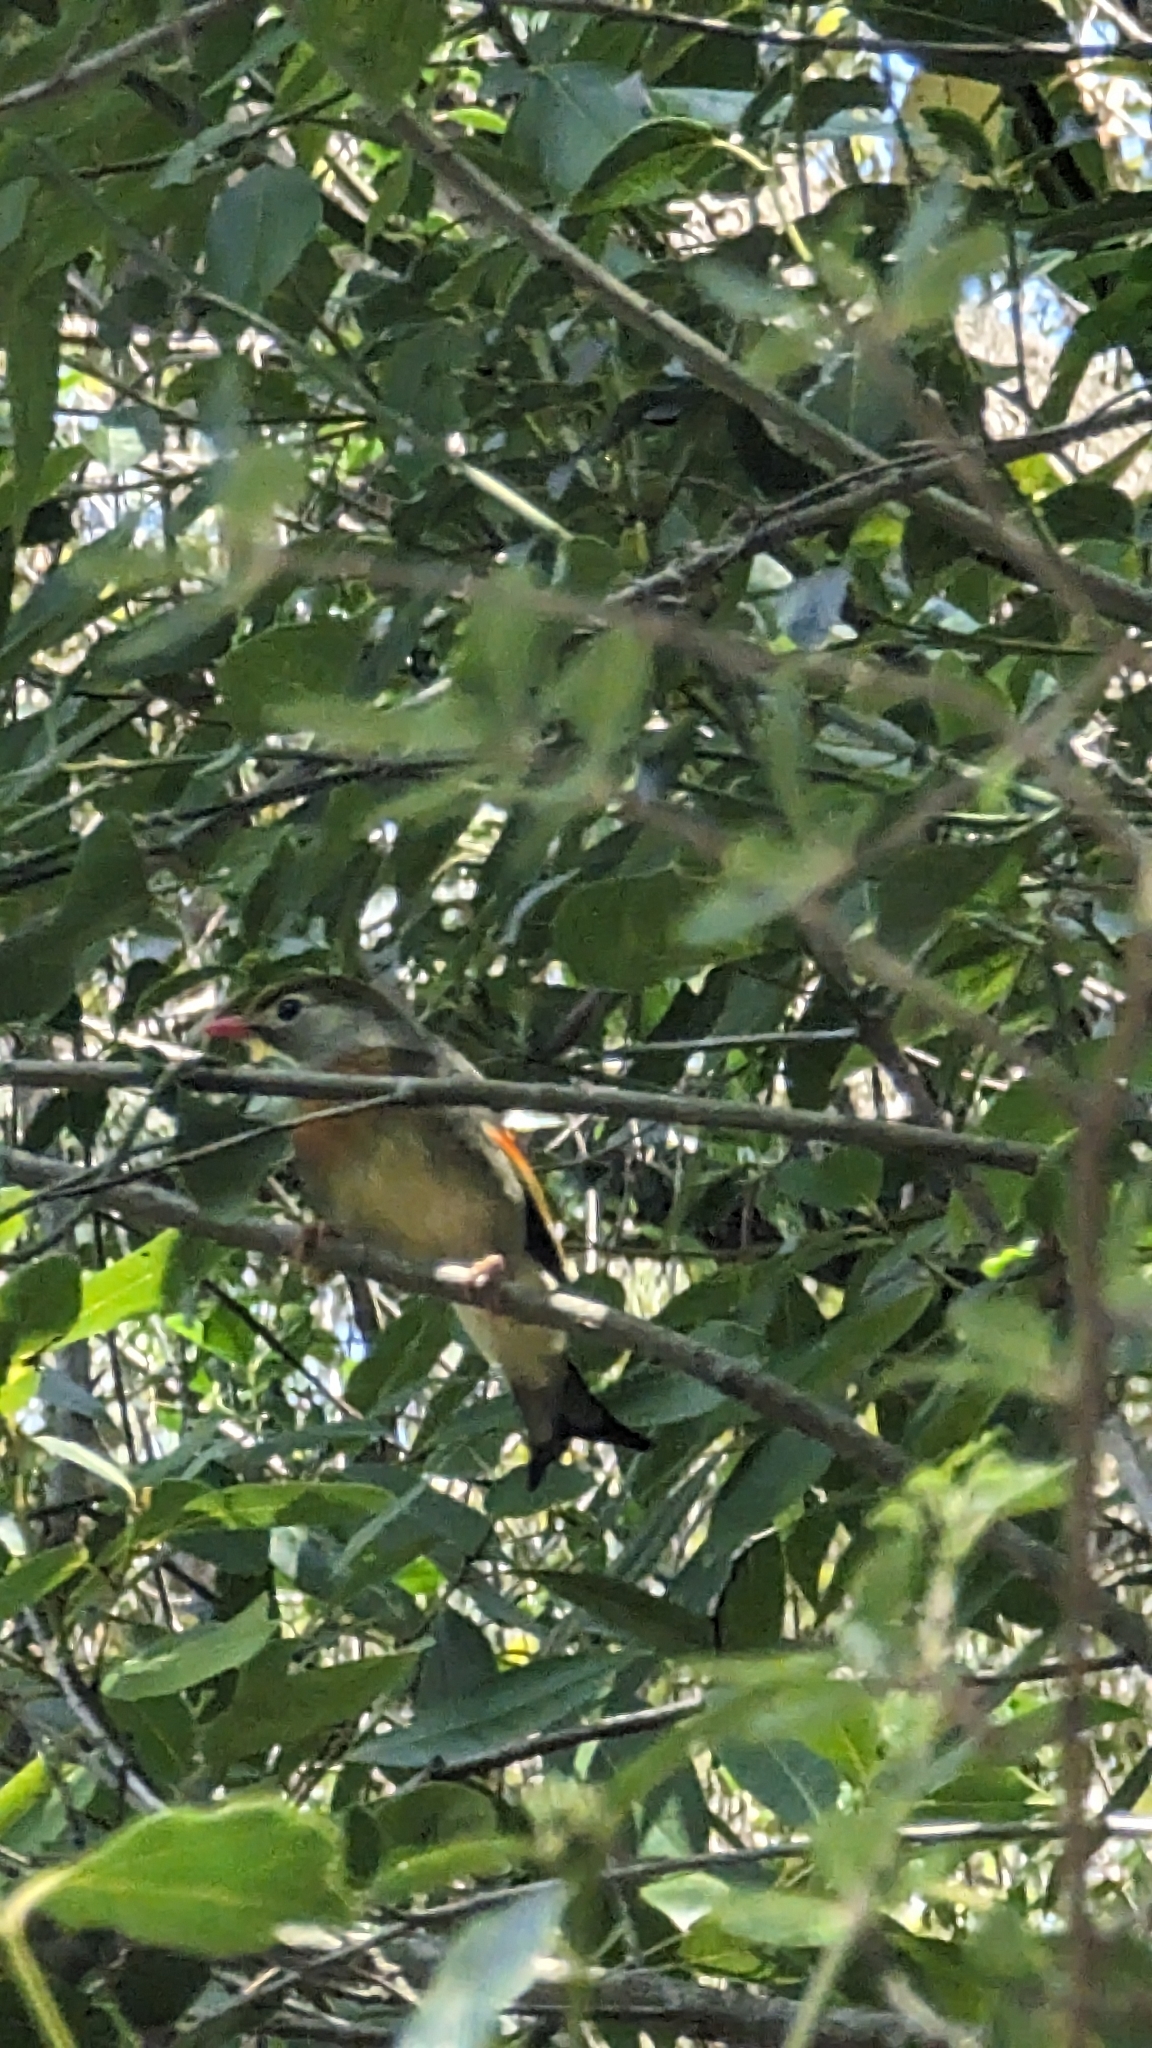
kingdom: Animalia
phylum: Chordata
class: Aves
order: Passeriformes
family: Leiothrichidae
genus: Leiothrix
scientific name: Leiothrix lutea
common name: Red-billed leiothrix
